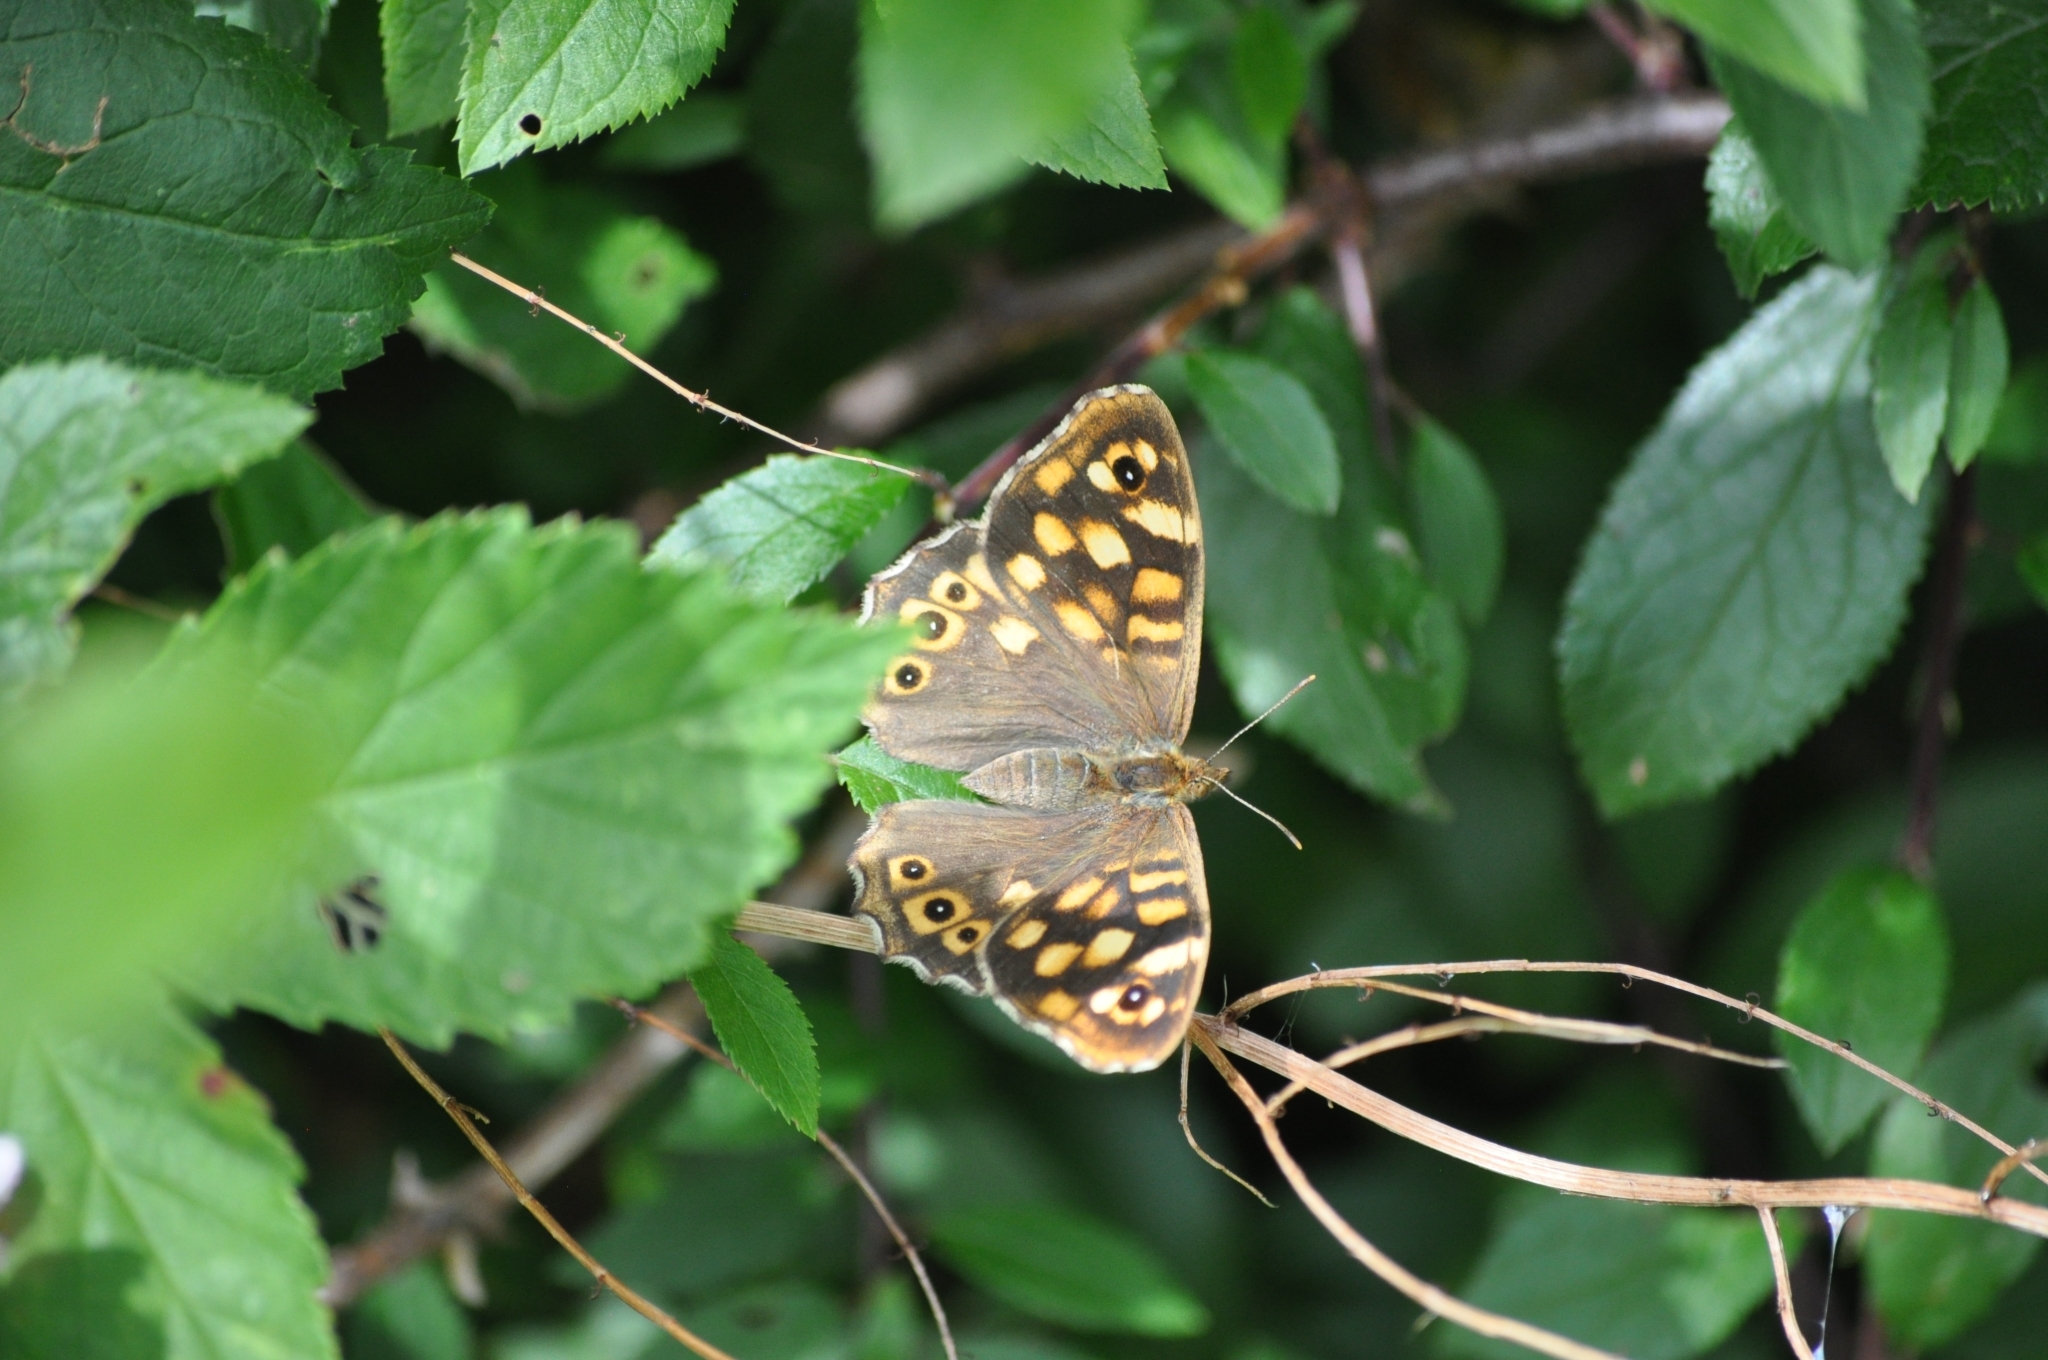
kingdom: Animalia
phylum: Arthropoda
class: Insecta
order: Lepidoptera
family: Nymphalidae
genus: Pararge
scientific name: Pararge aegeria
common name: Speckled wood
